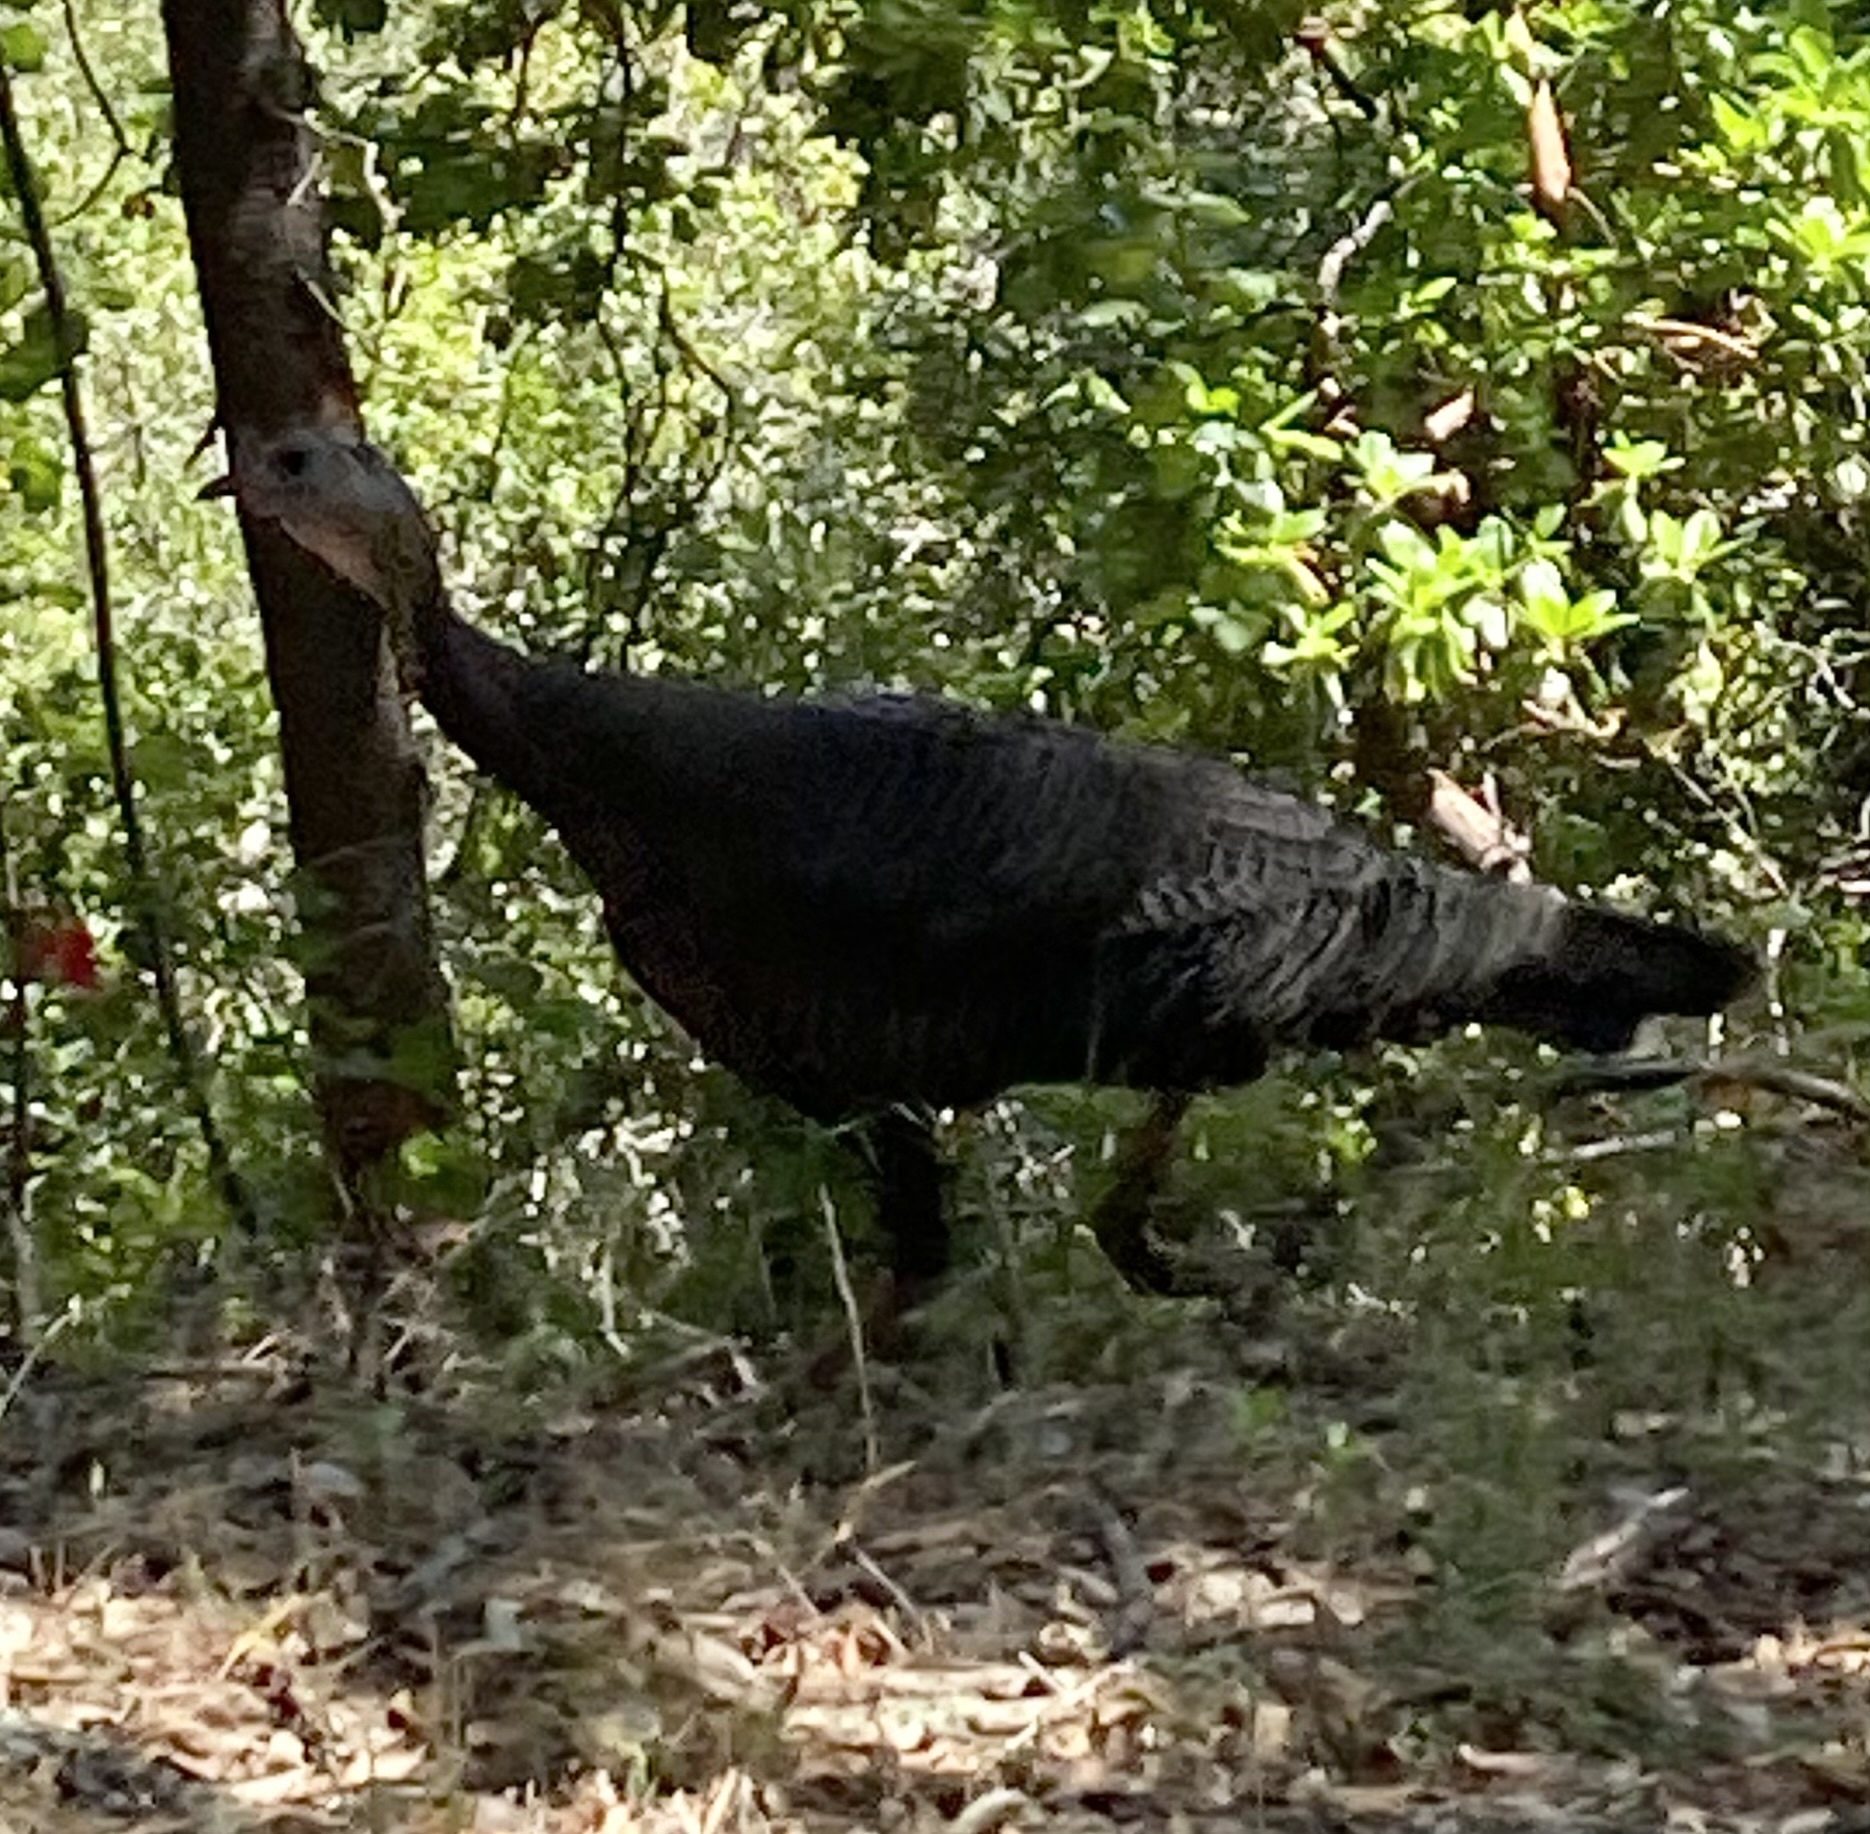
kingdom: Animalia
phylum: Chordata
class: Aves
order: Galliformes
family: Phasianidae
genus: Meleagris
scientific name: Meleagris gallopavo
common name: Wild turkey
